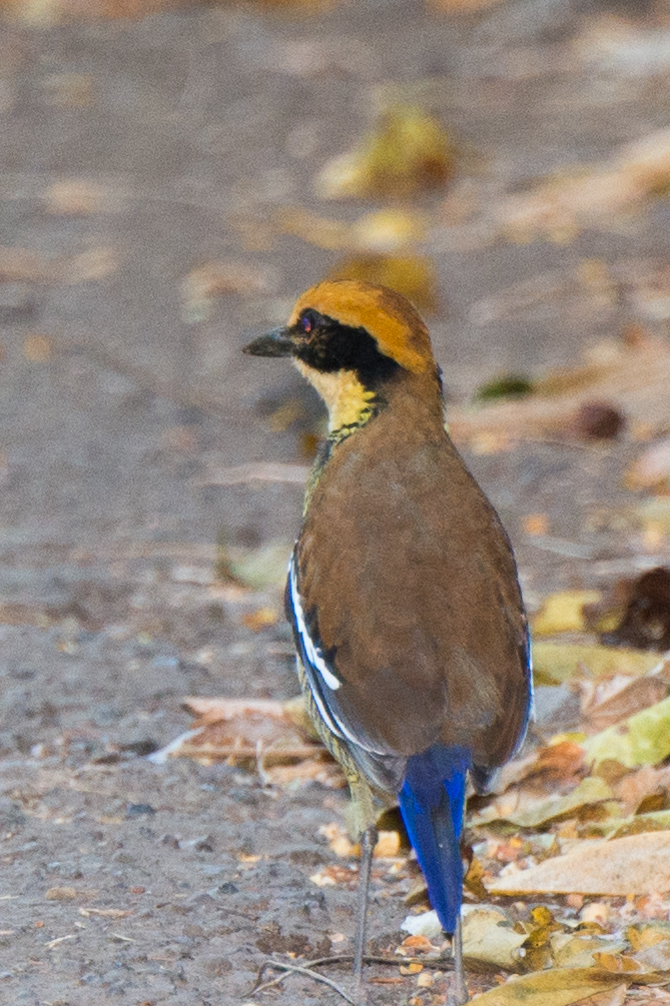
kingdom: Animalia
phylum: Chordata
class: Aves
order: Passeriformes
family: Pittidae
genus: Pitta
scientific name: Pitta guajana
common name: Banded pitta
